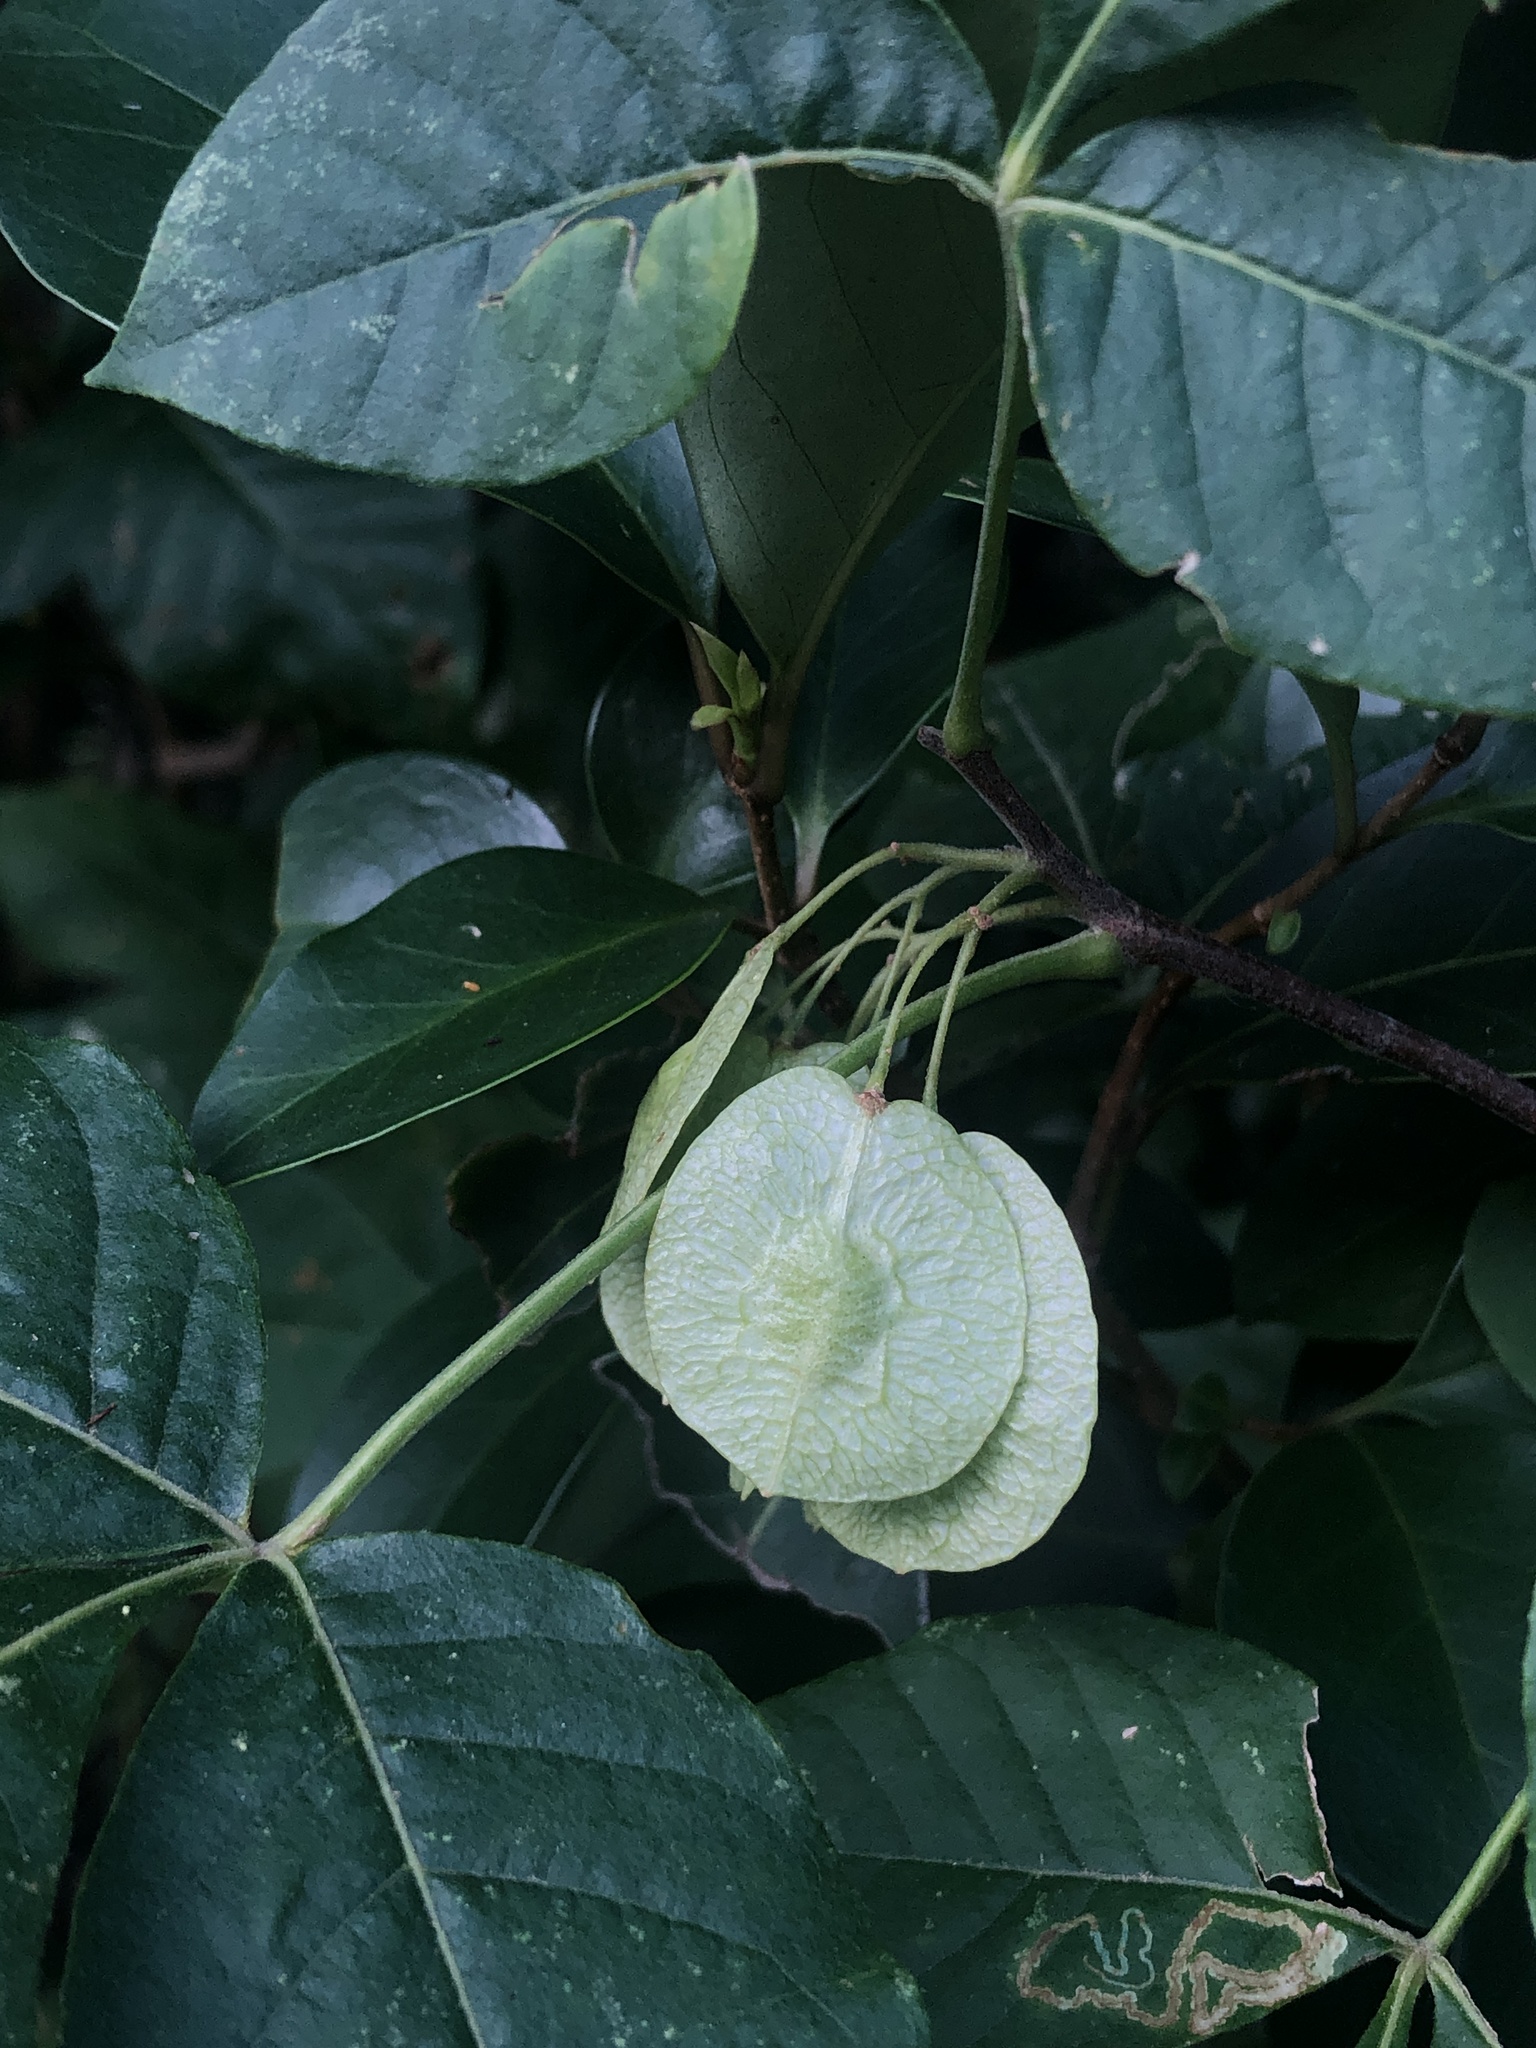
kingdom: Plantae
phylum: Tracheophyta
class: Magnoliopsida
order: Sapindales
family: Rutaceae
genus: Ptelea
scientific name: Ptelea trifoliata
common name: Common hop-tree
